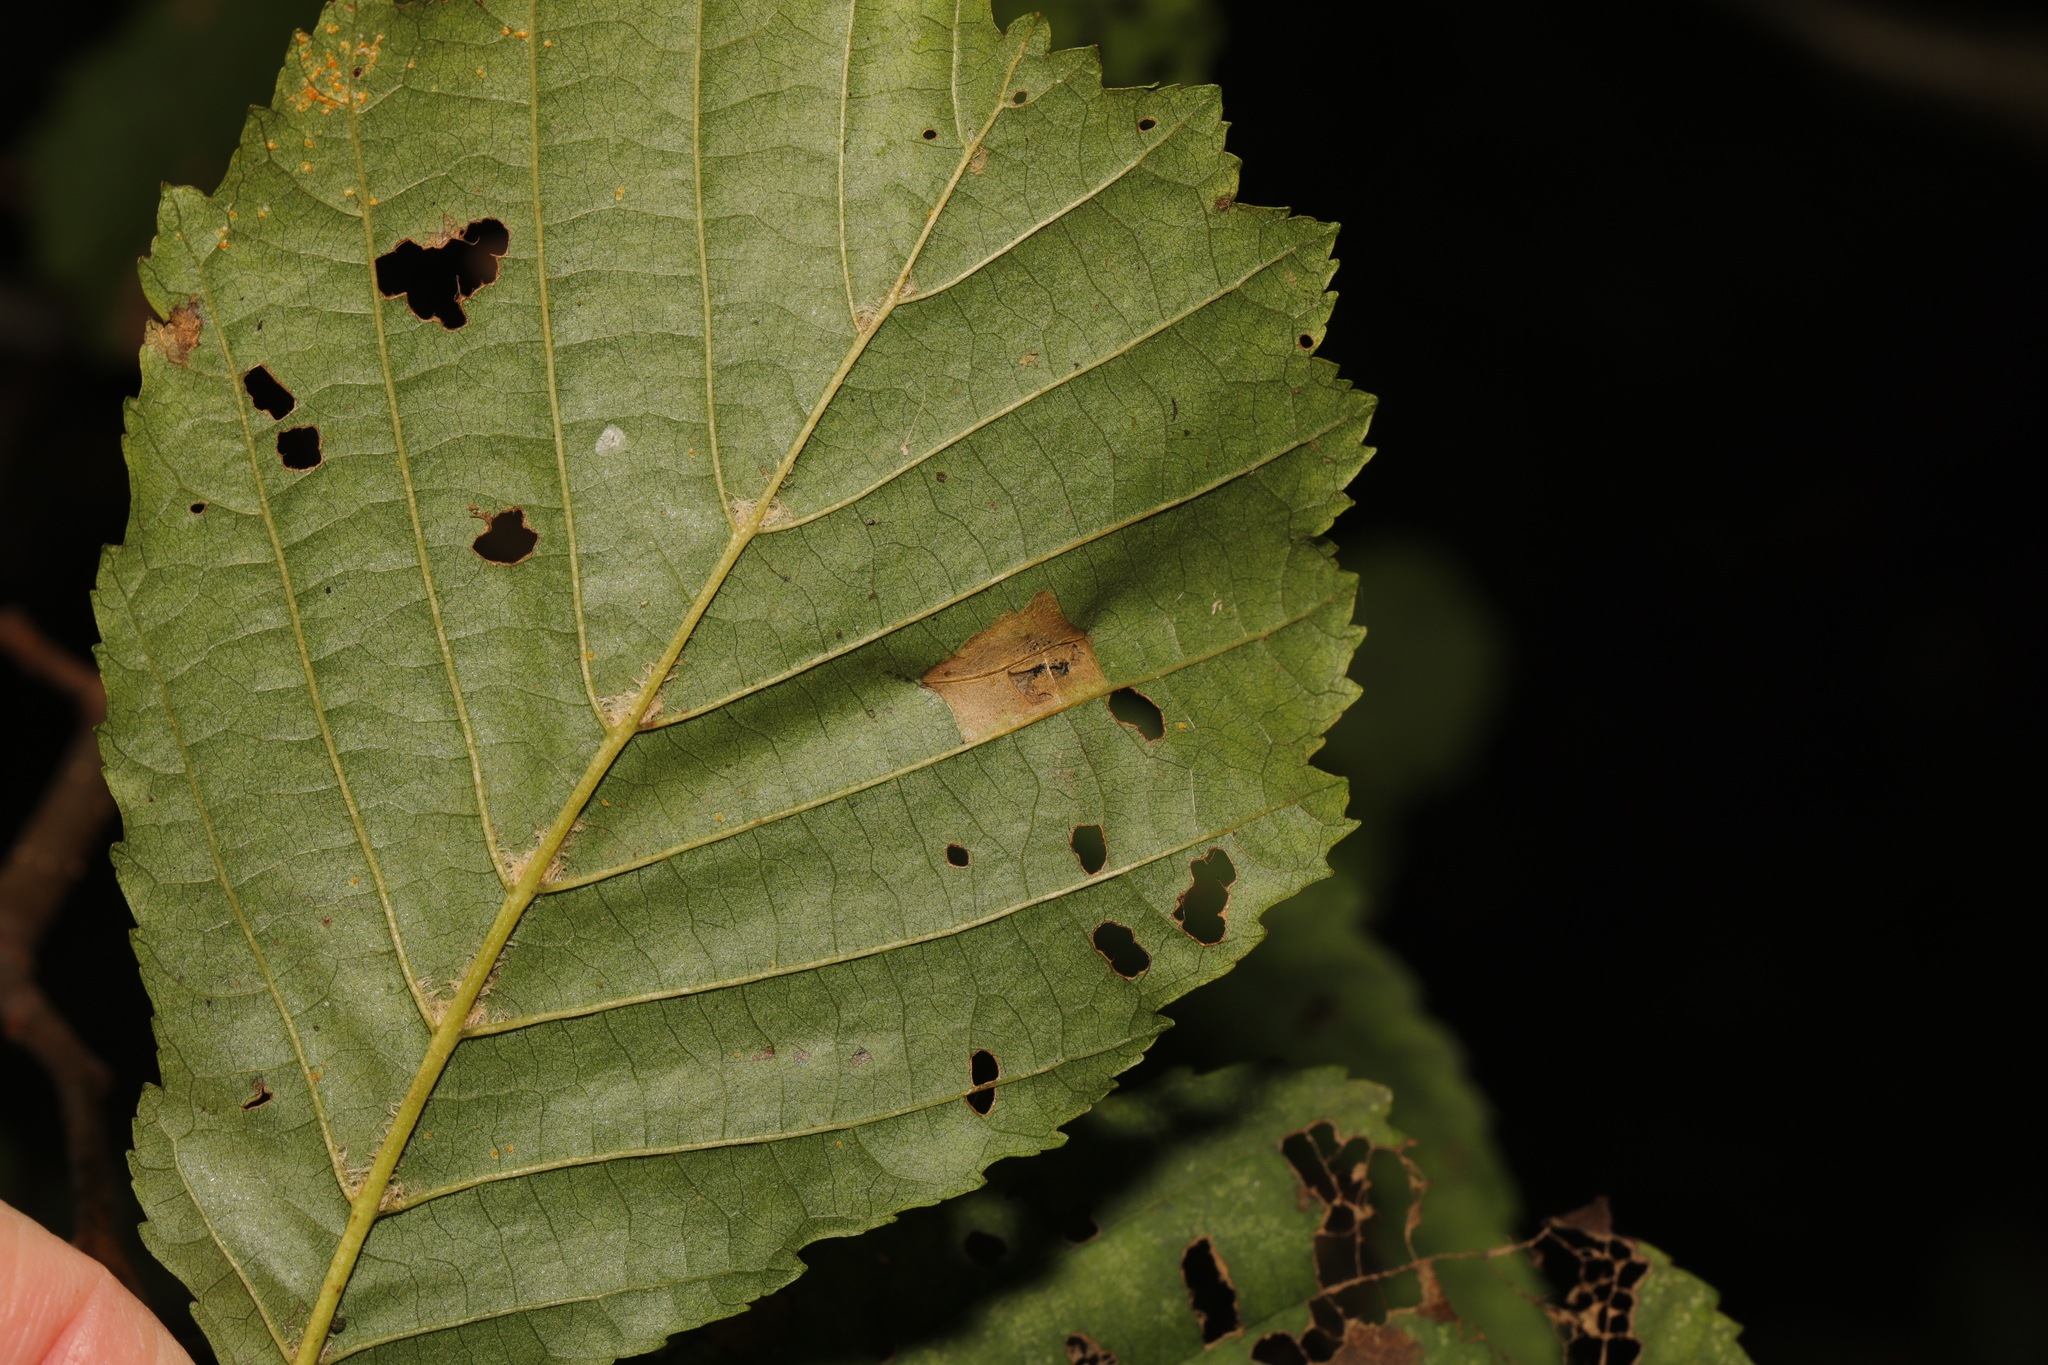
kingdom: Animalia
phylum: Arthropoda
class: Insecta
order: Lepidoptera
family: Gracillariidae
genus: Phyllonorycter
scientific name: Phyllonorycter klemannella
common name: Dark alder midget
